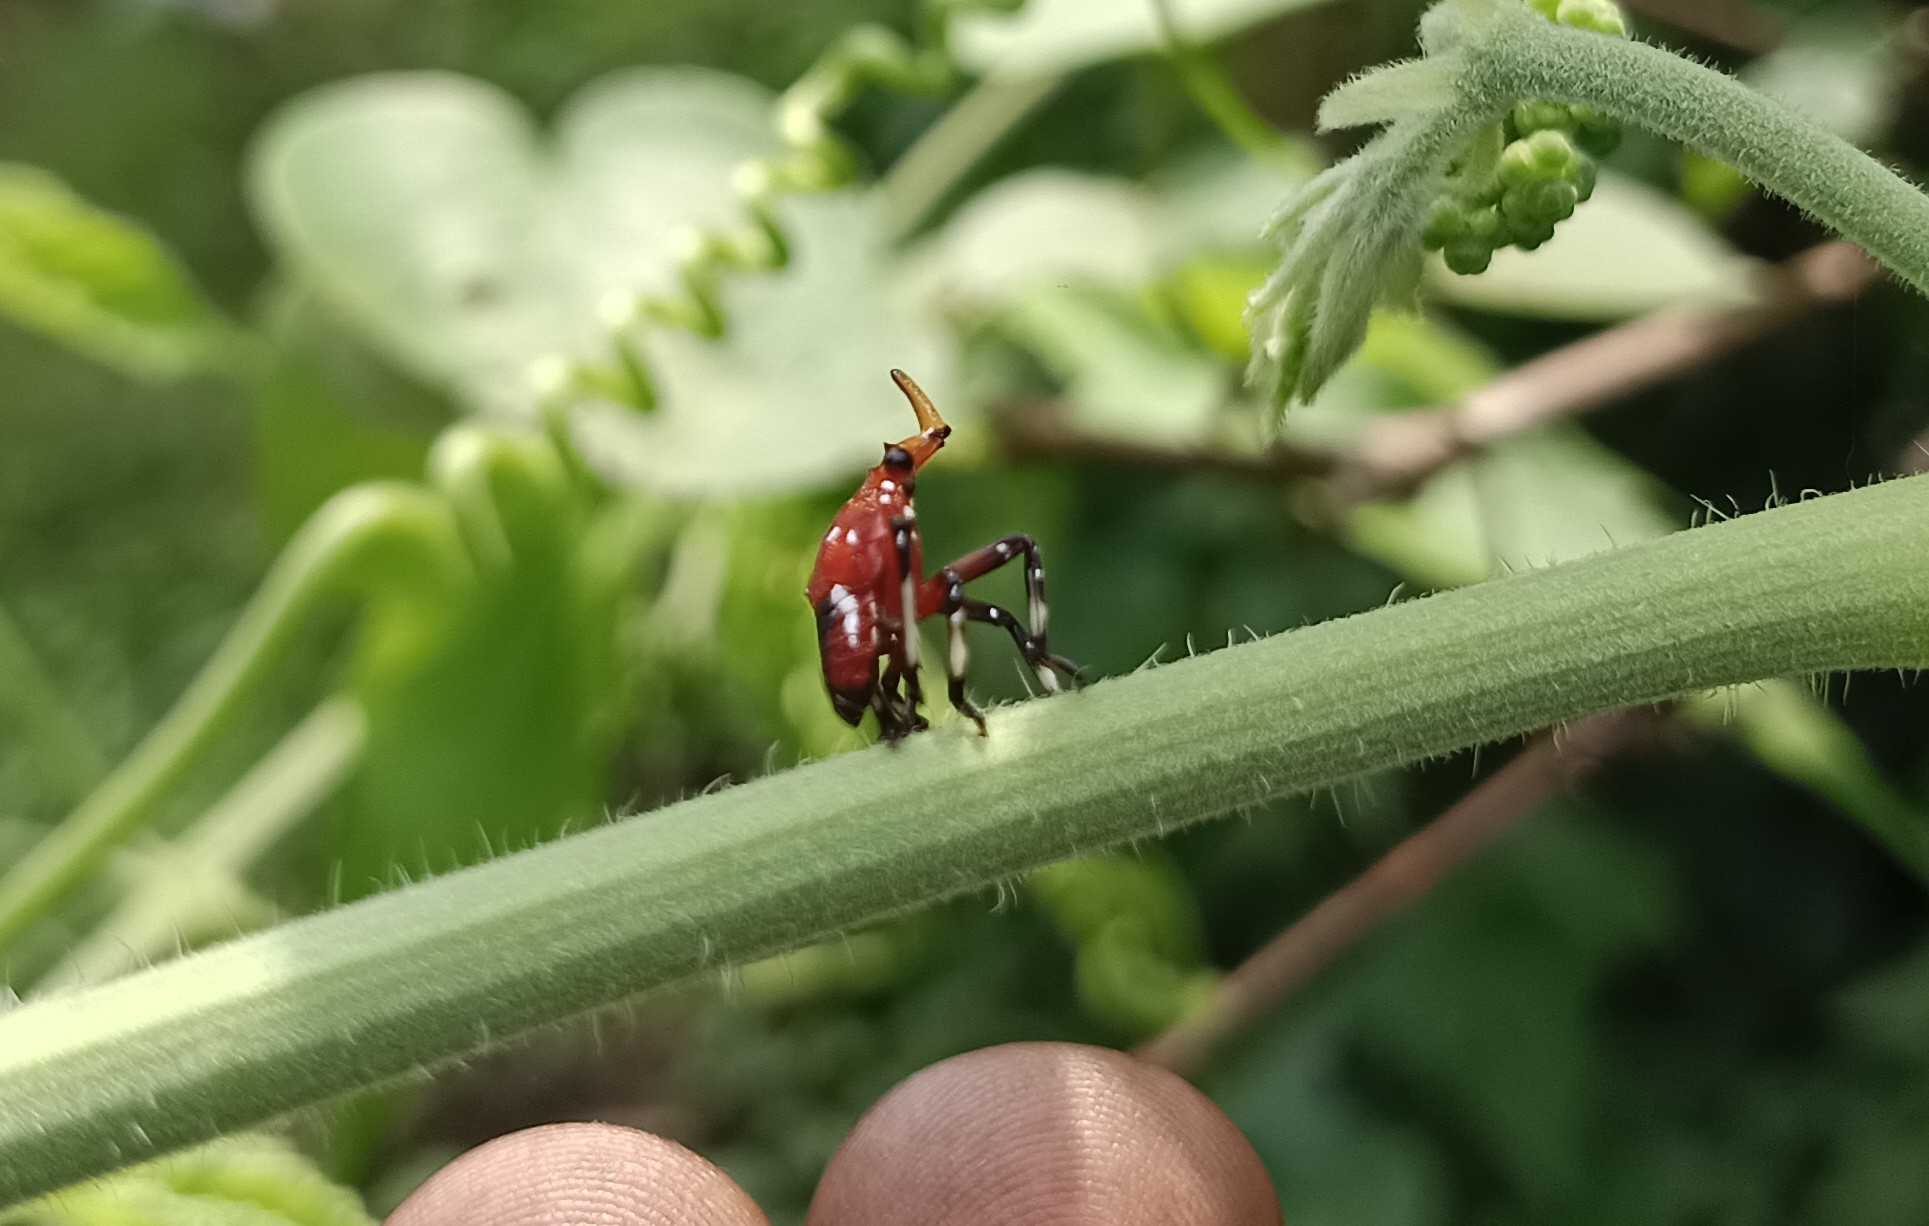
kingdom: Animalia
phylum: Arthropoda
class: Insecta
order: Hemiptera
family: Fulgoridae
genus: Kalidasa
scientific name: Kalidasa lanata
